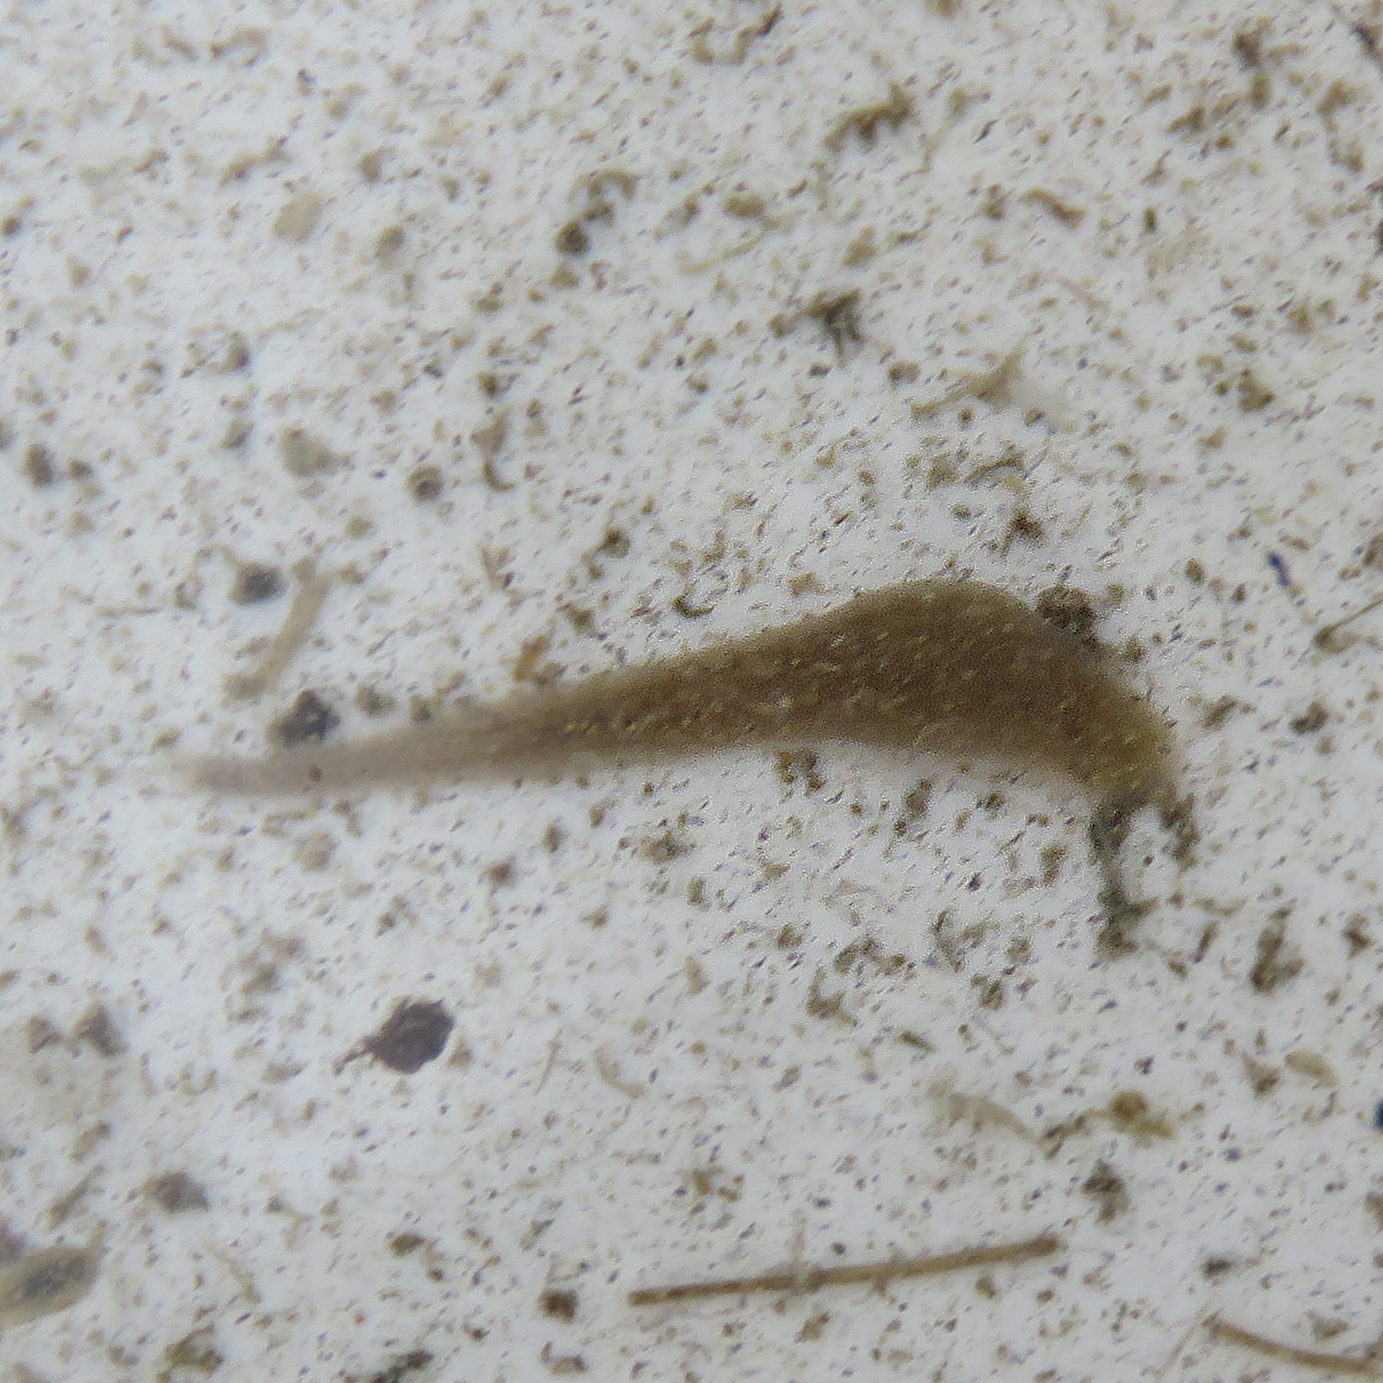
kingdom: Animalia
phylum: Annelida
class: Clitellata
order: Rhynchobdellida
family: Glossiphoniidae
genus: Helobdella
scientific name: Helobdella stagnalis
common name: Biocular leech
